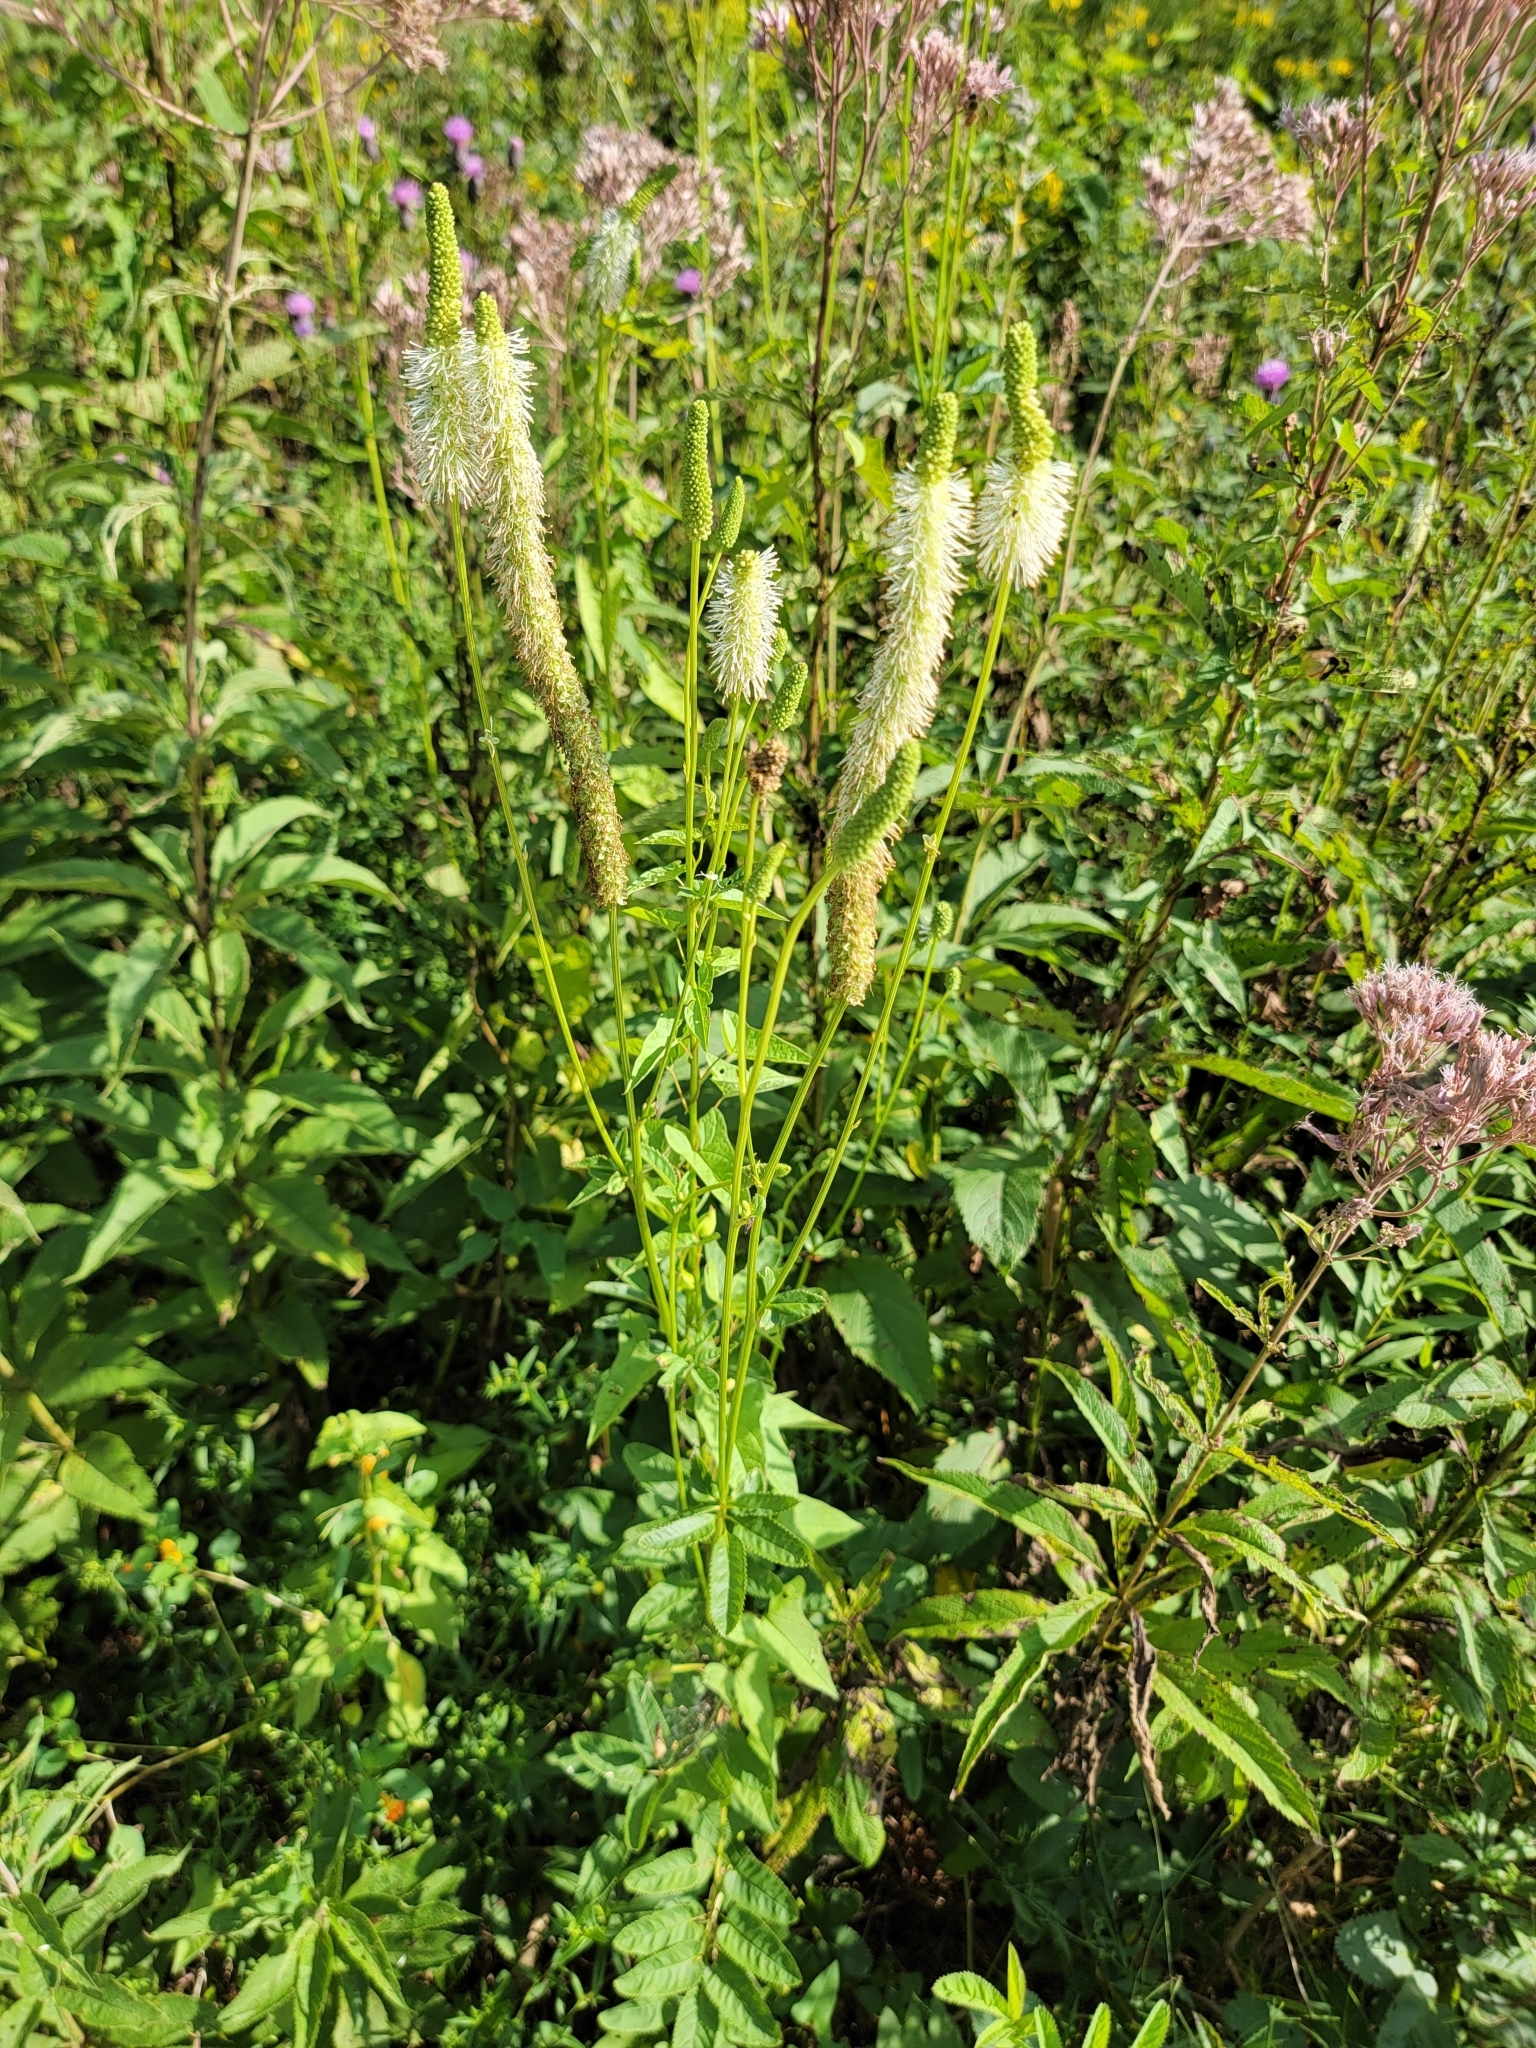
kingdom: Plantae
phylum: Tracheophyta
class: Magnoliopsida
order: Rosales
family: Rosaceae
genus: Sanguisorba
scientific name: Sanguisorba canadensis
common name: White burnet
